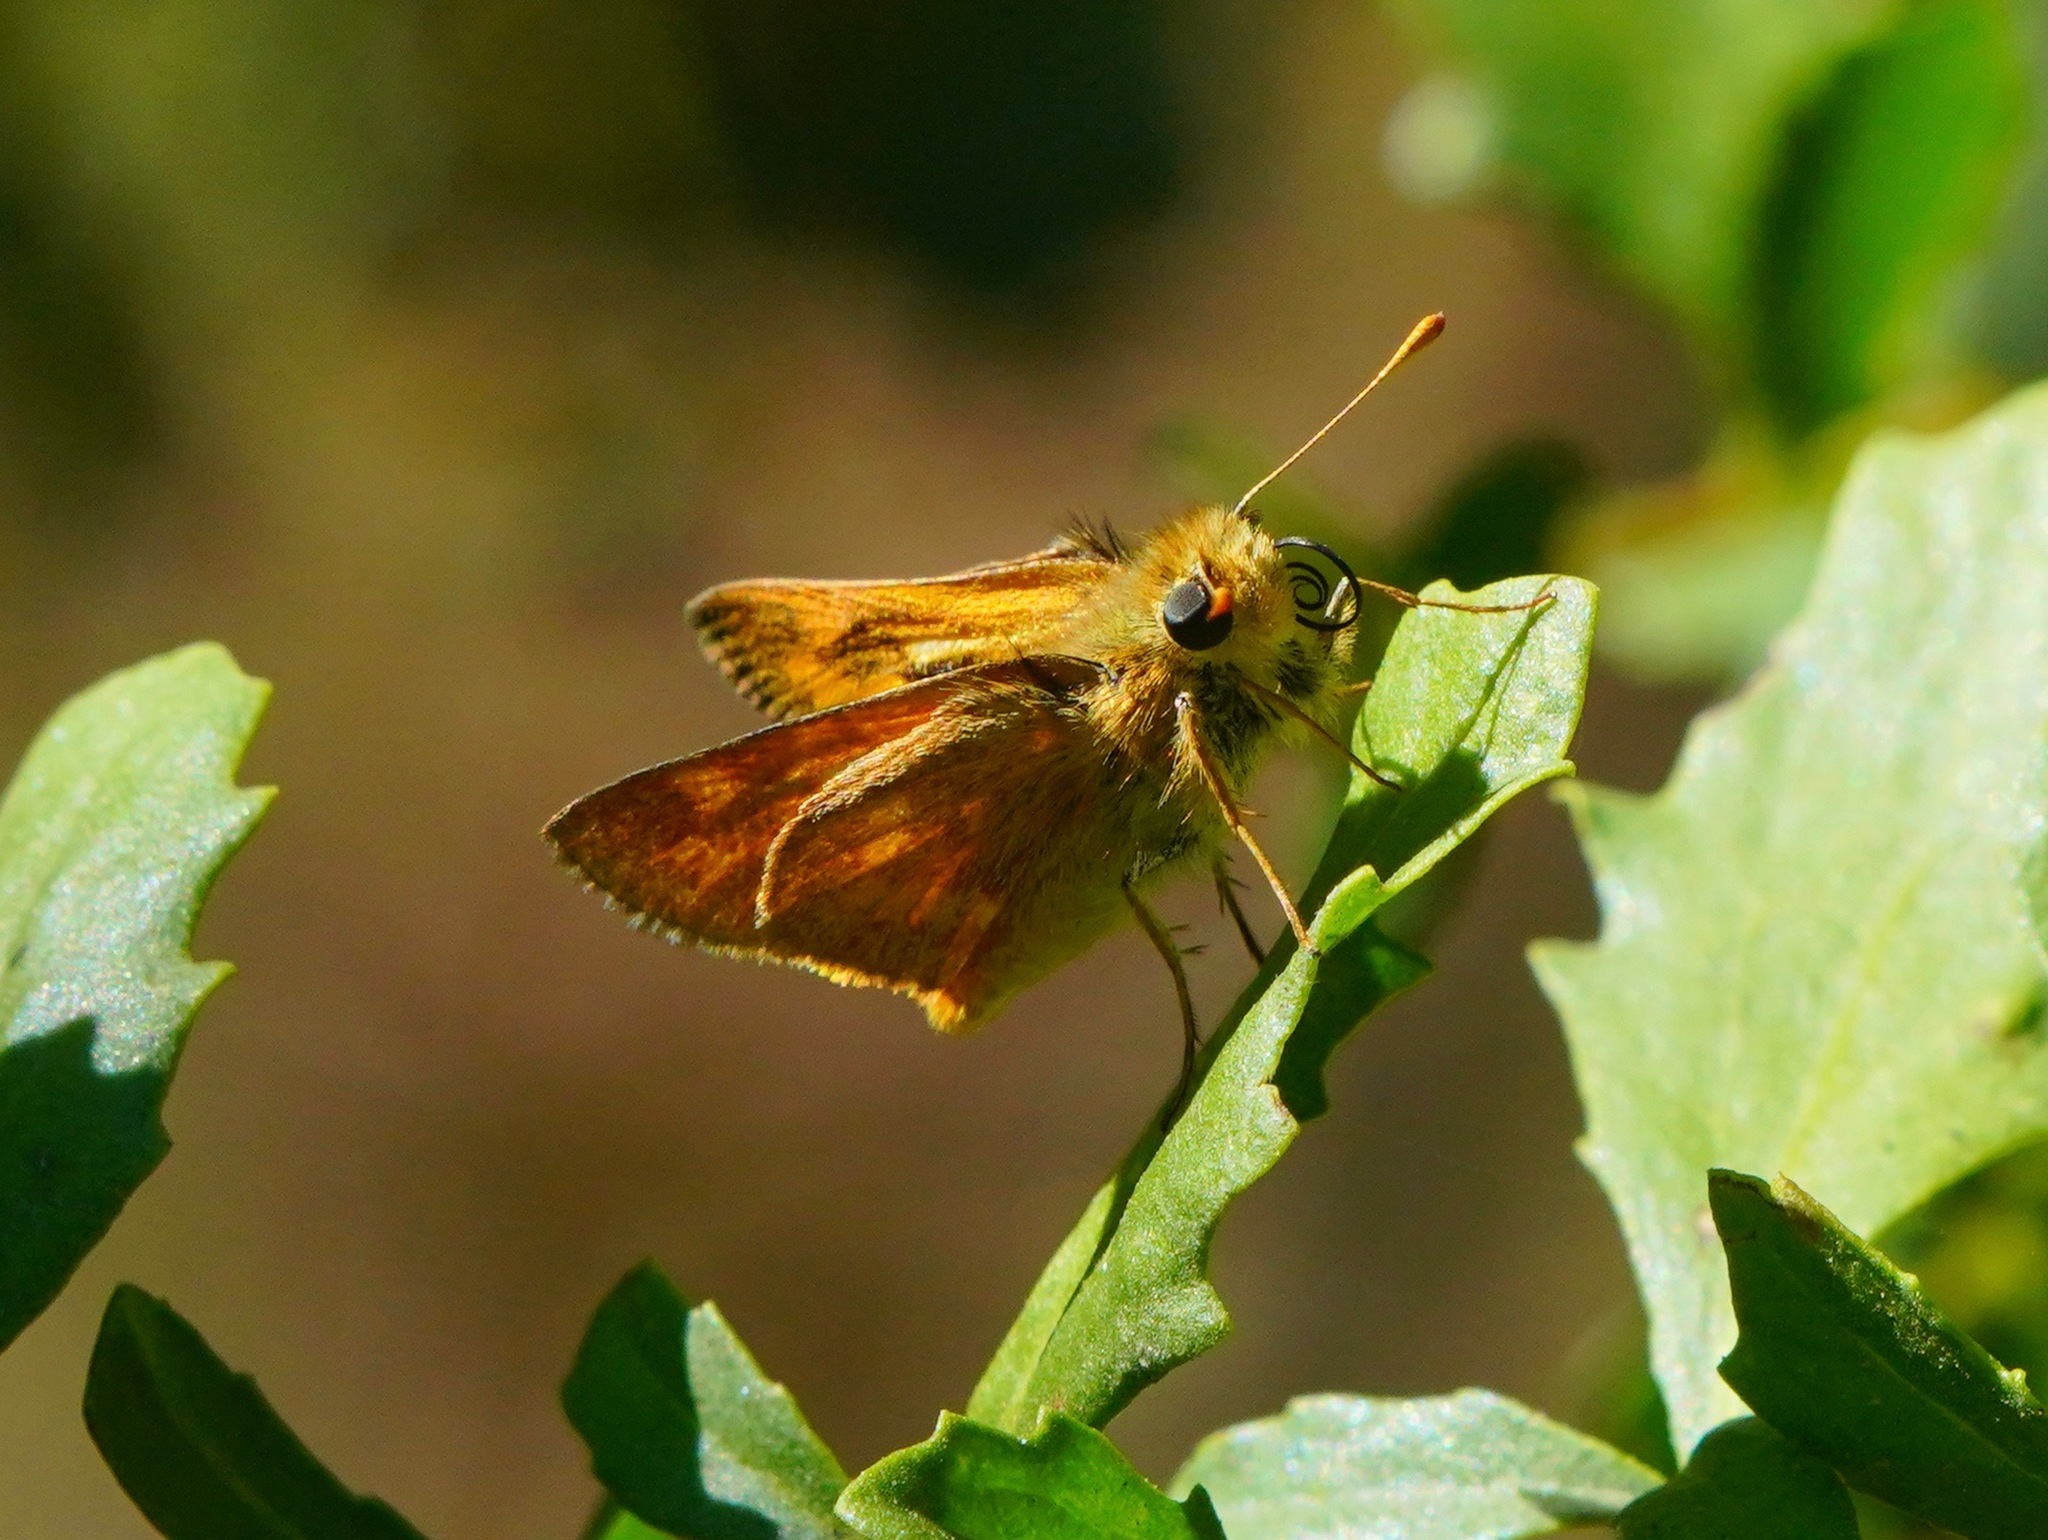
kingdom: Animalia
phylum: Arthropoda
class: Insecta
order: Lepidoptera
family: Hesperiidae
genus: Ochlodes
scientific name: Ochlodes sylvanoides
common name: Woodland skipper
